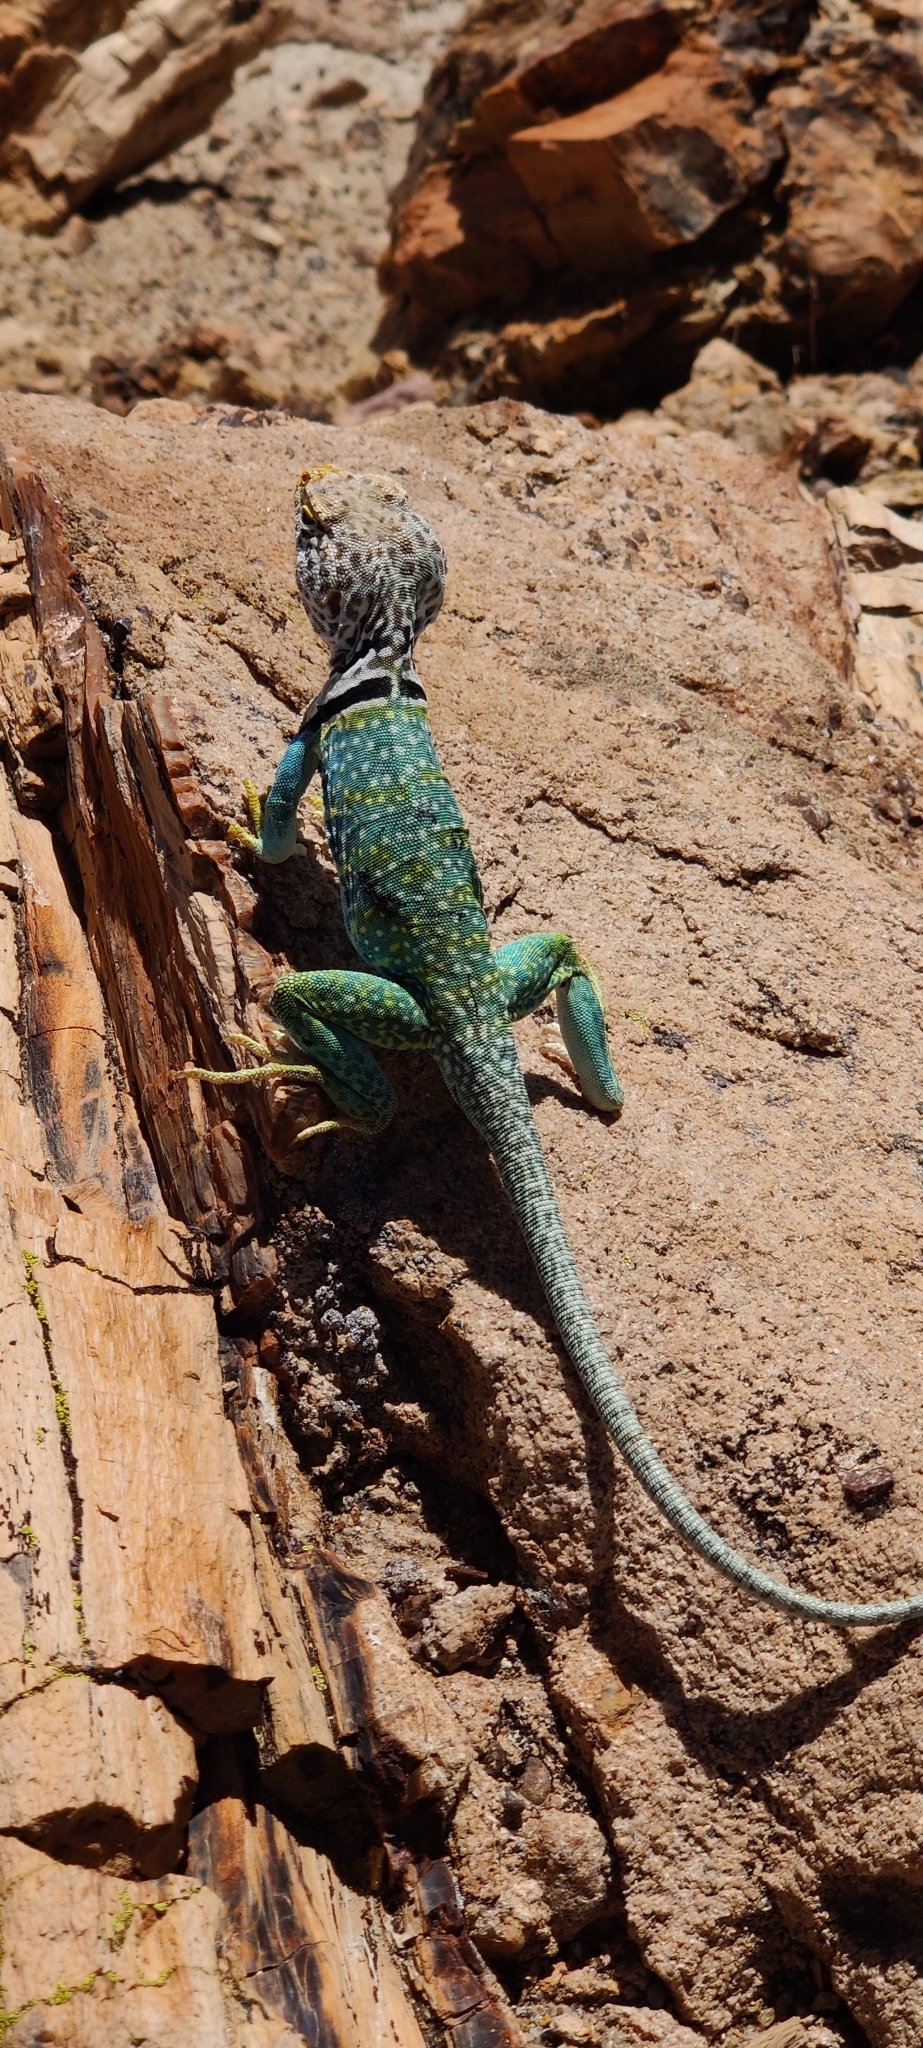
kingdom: Animalia
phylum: Chordata
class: Squamata
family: Crotaphytidae
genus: Crotaphytus
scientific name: Crotaphytus collaris
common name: Collared lizard
